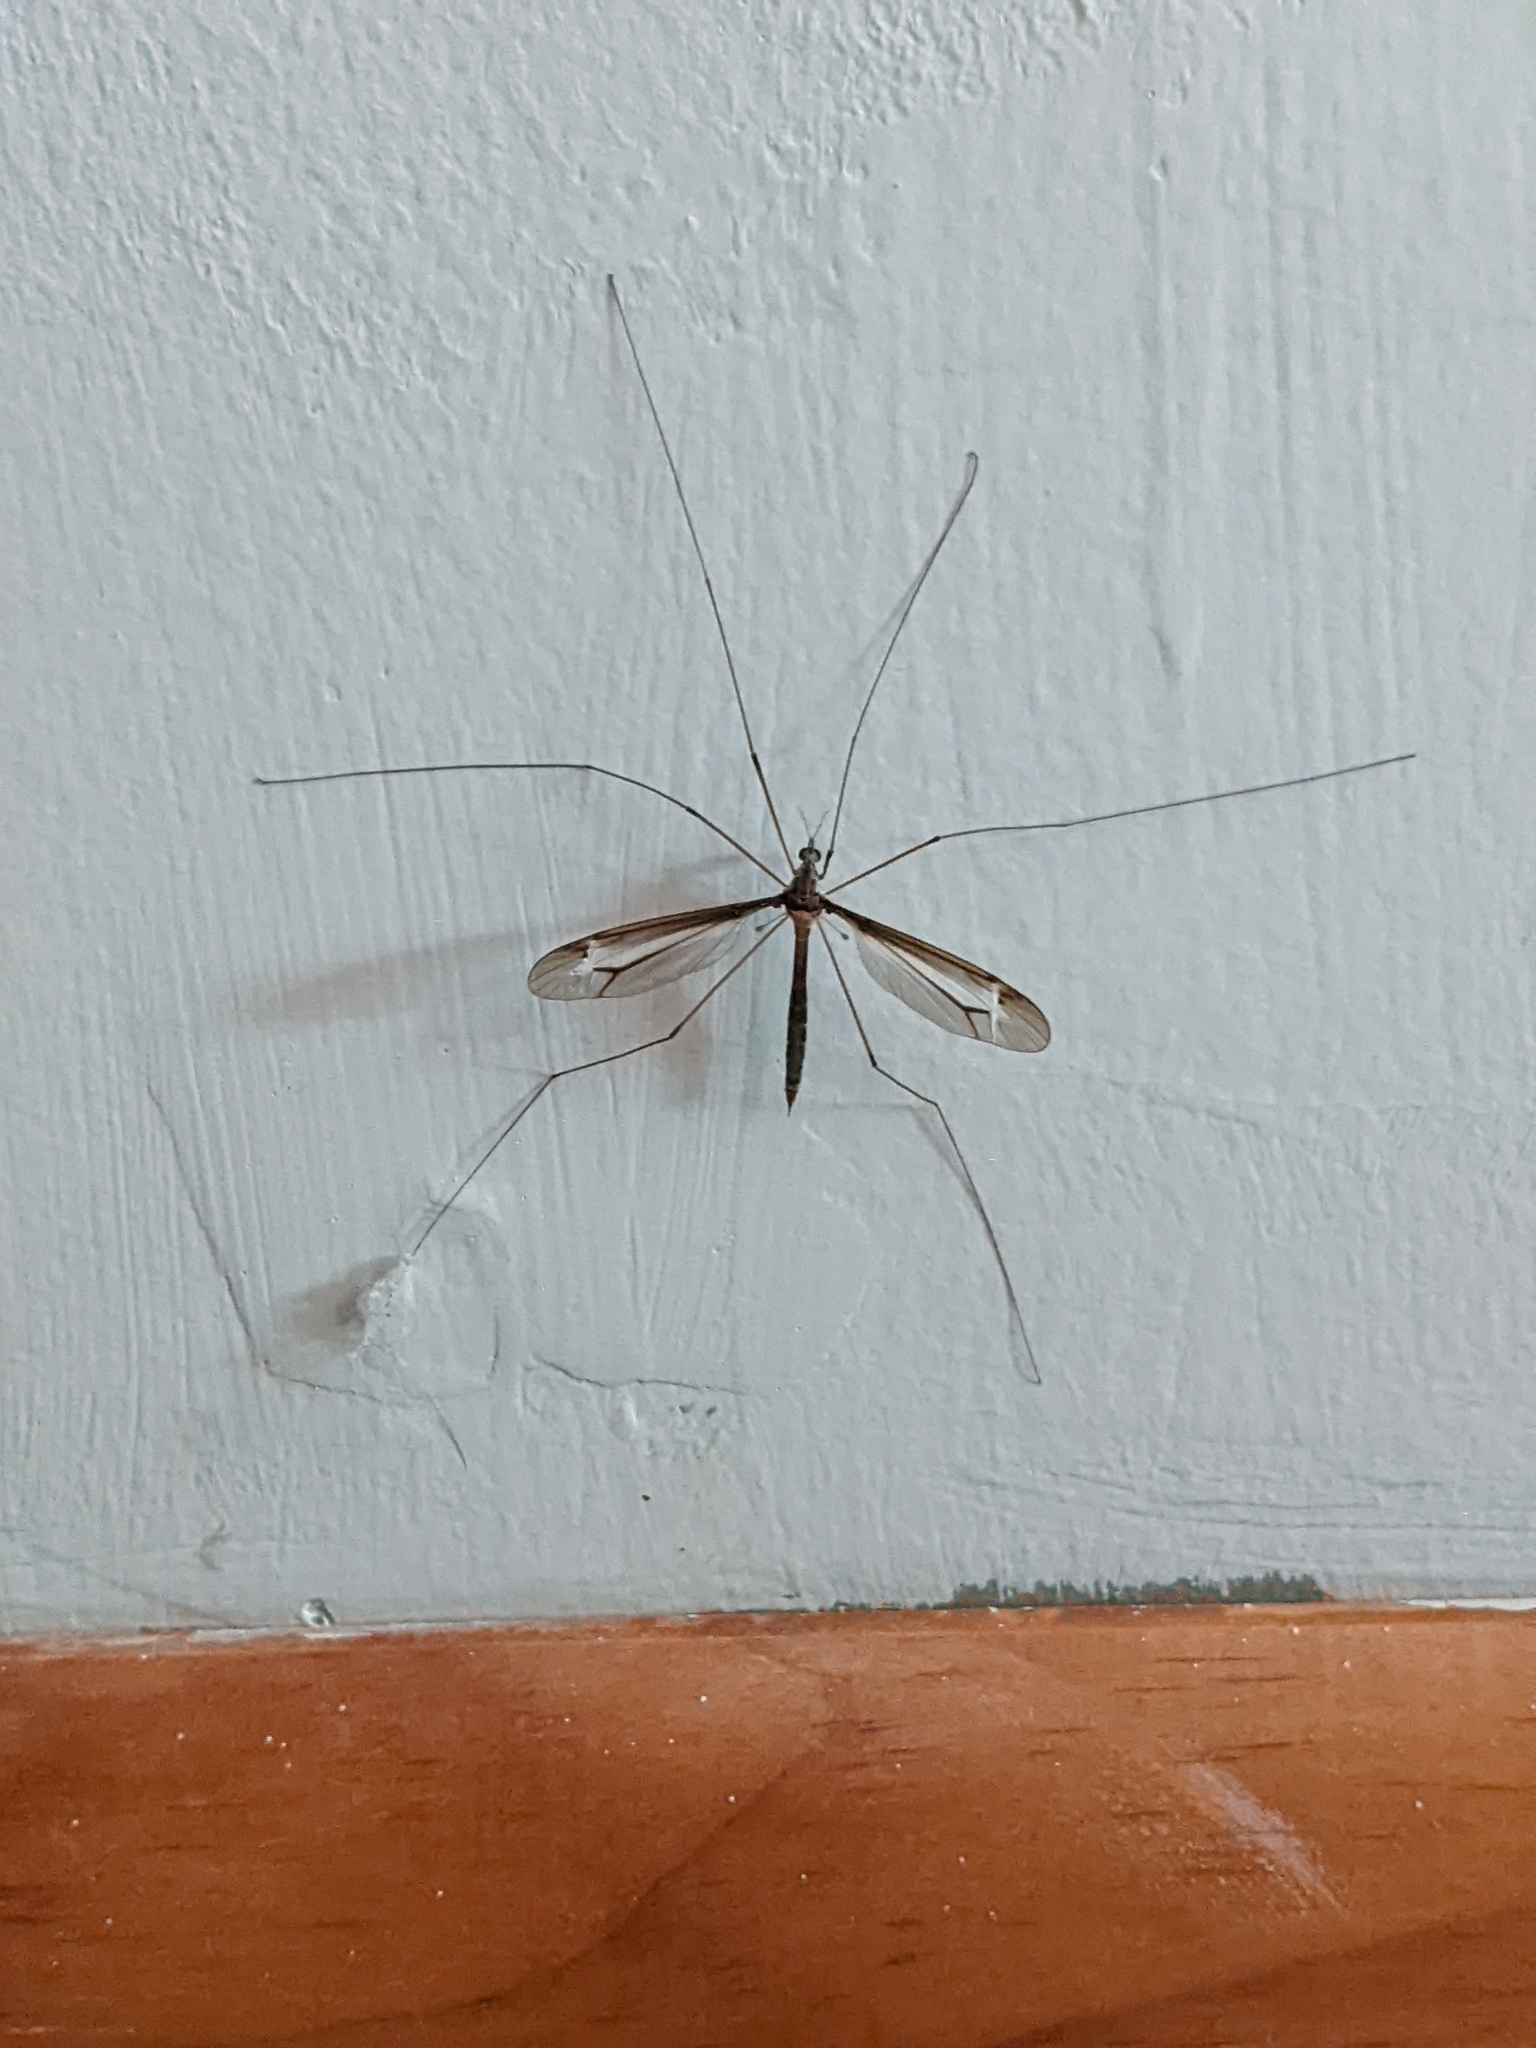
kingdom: Animalia
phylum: Arthropoda
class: Insecta
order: Diptera
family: Tipulidae
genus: Tipula
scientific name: Tipula furca
